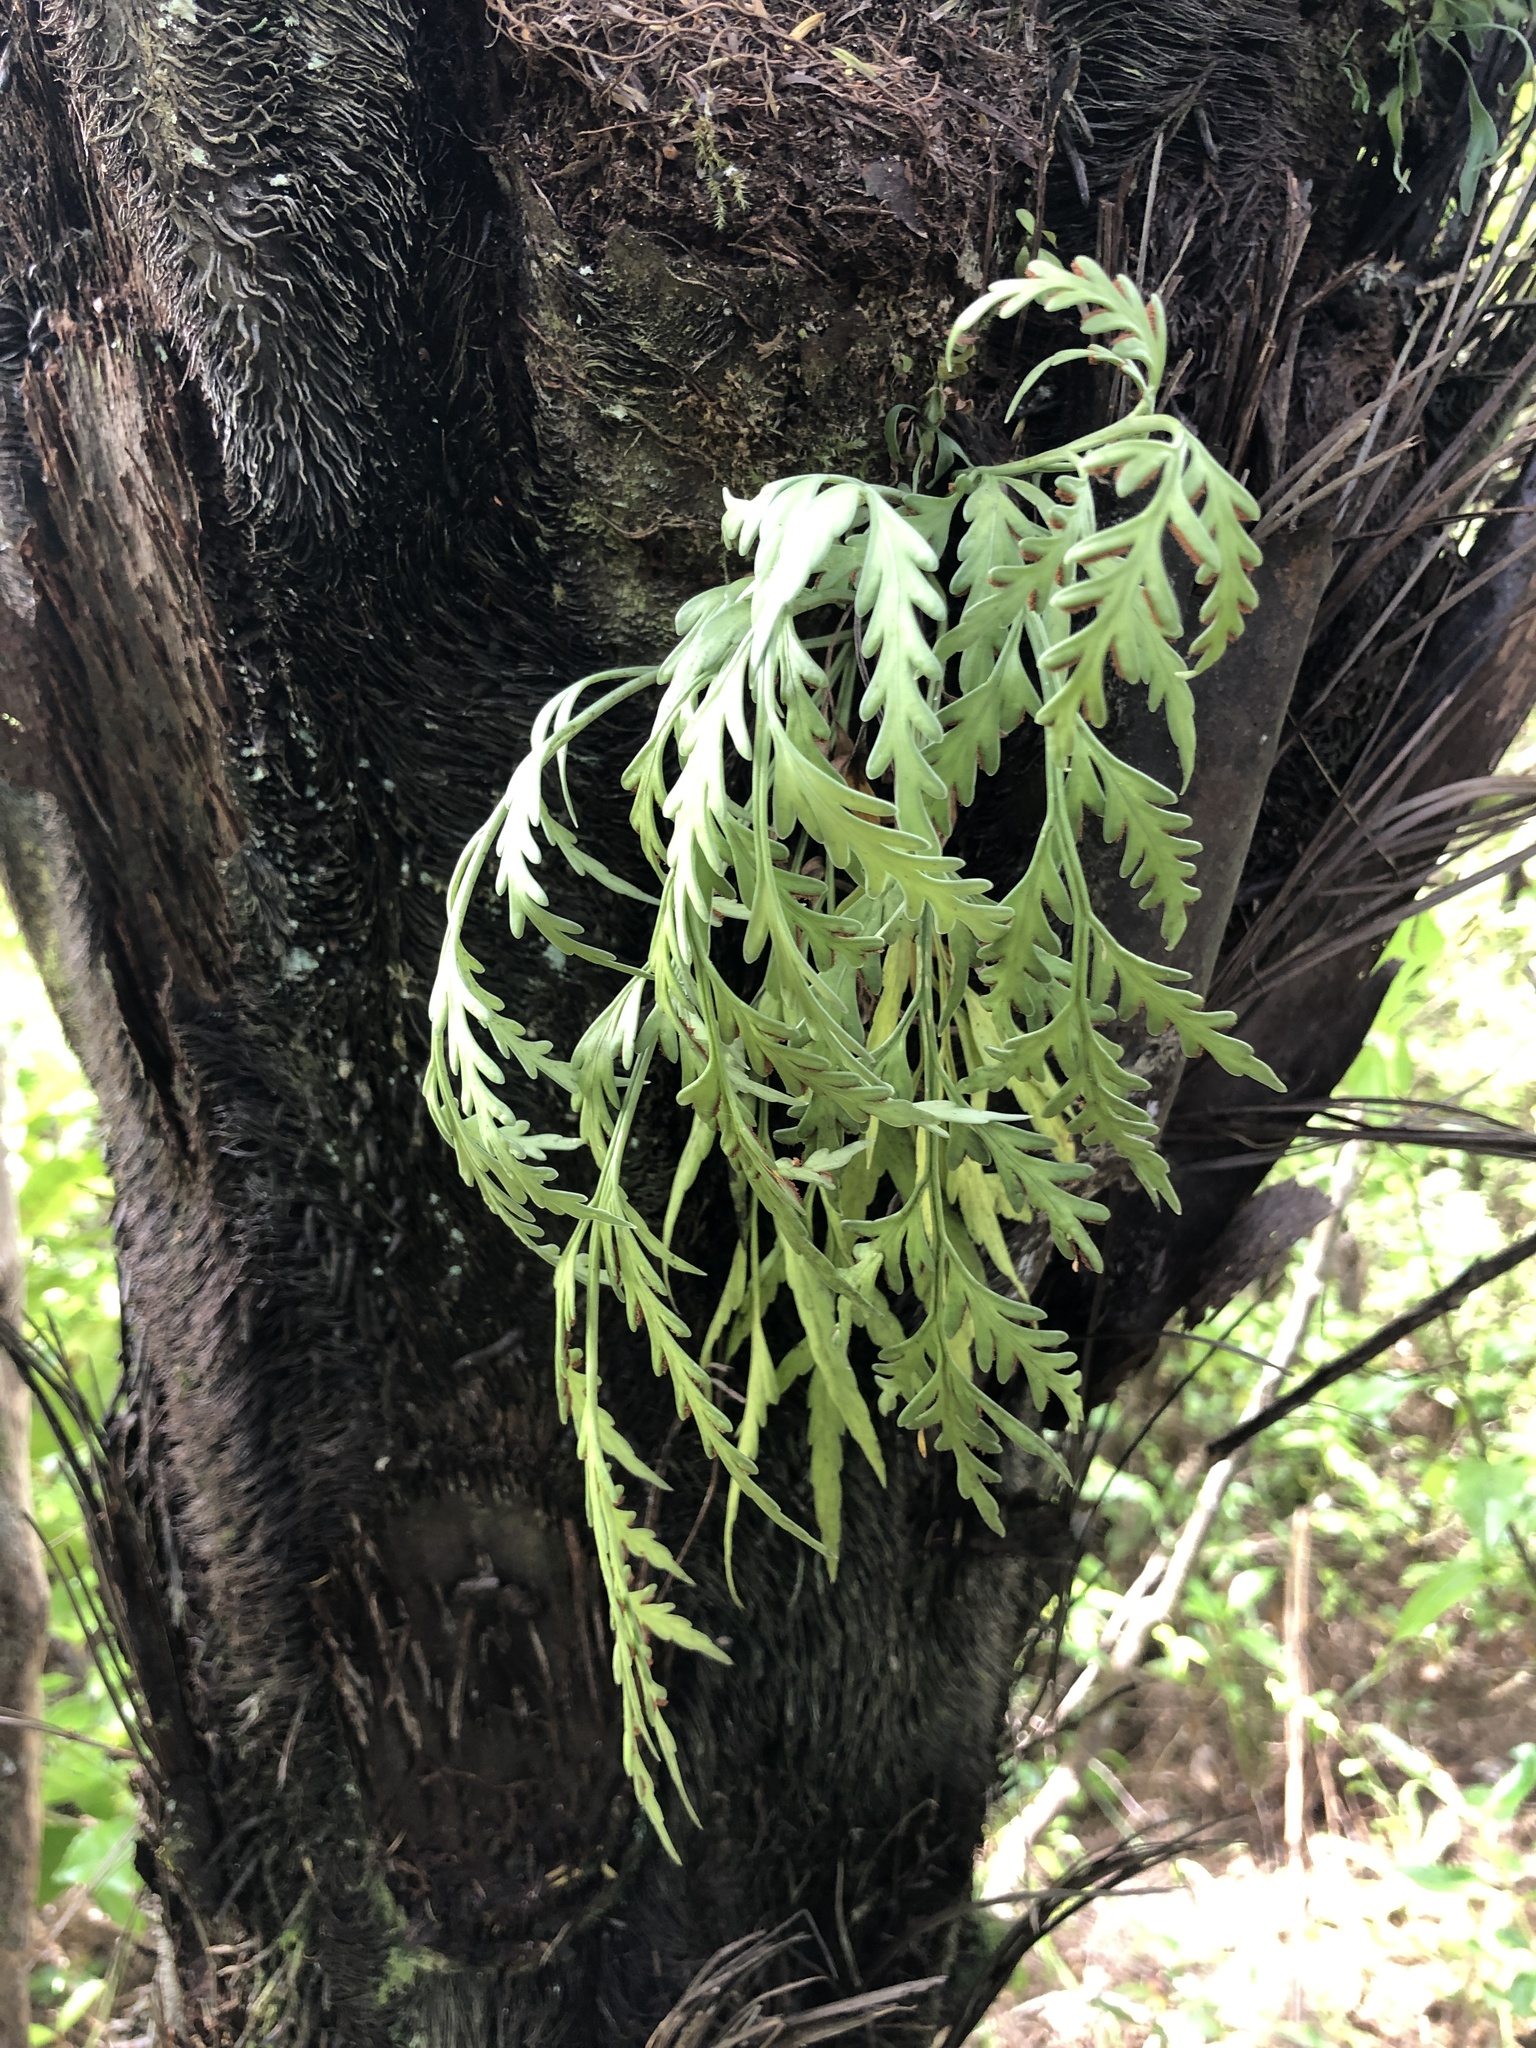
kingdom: Plantae
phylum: Tracheophyta
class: Polypodiopsida
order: Polypodiales
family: Aspleniaceae
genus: Asplenium
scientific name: Asplenium flaccidum
